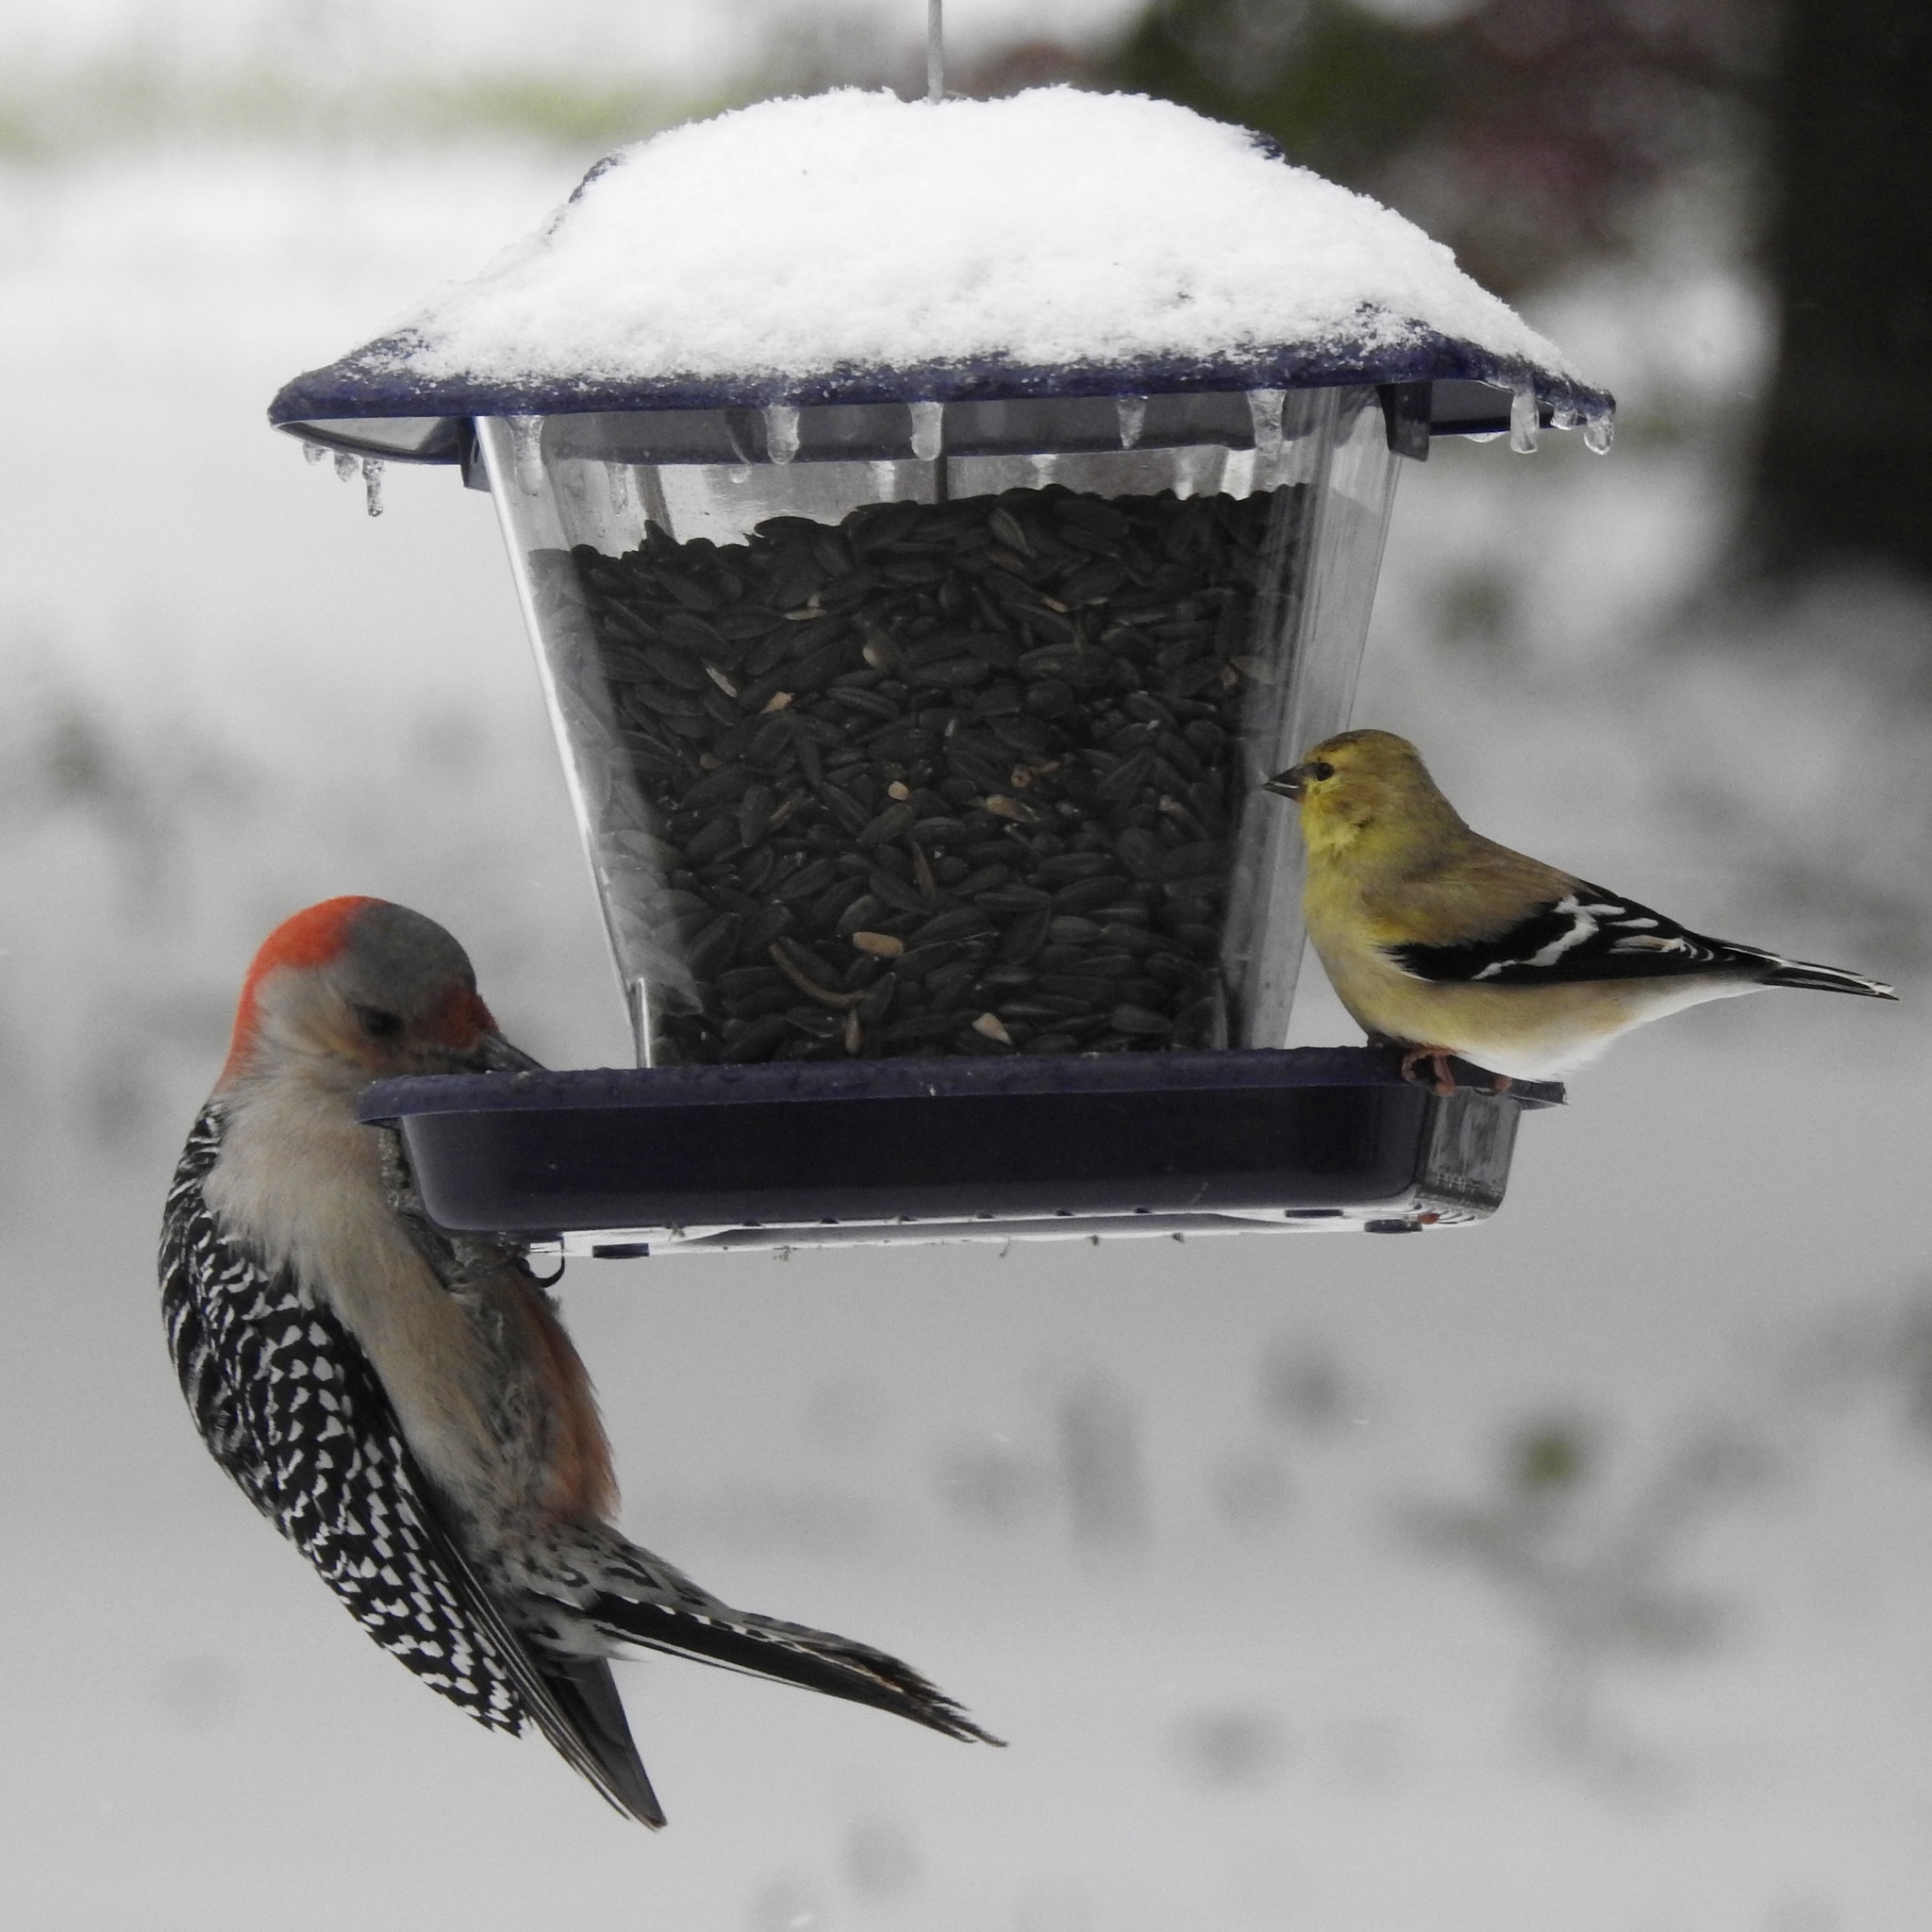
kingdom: Animalia
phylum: Chordata
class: Aves
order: Piciformes
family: Picidae
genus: Melanerpes
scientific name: Melanerpes carolinus
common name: Red-bellied woodpecker
